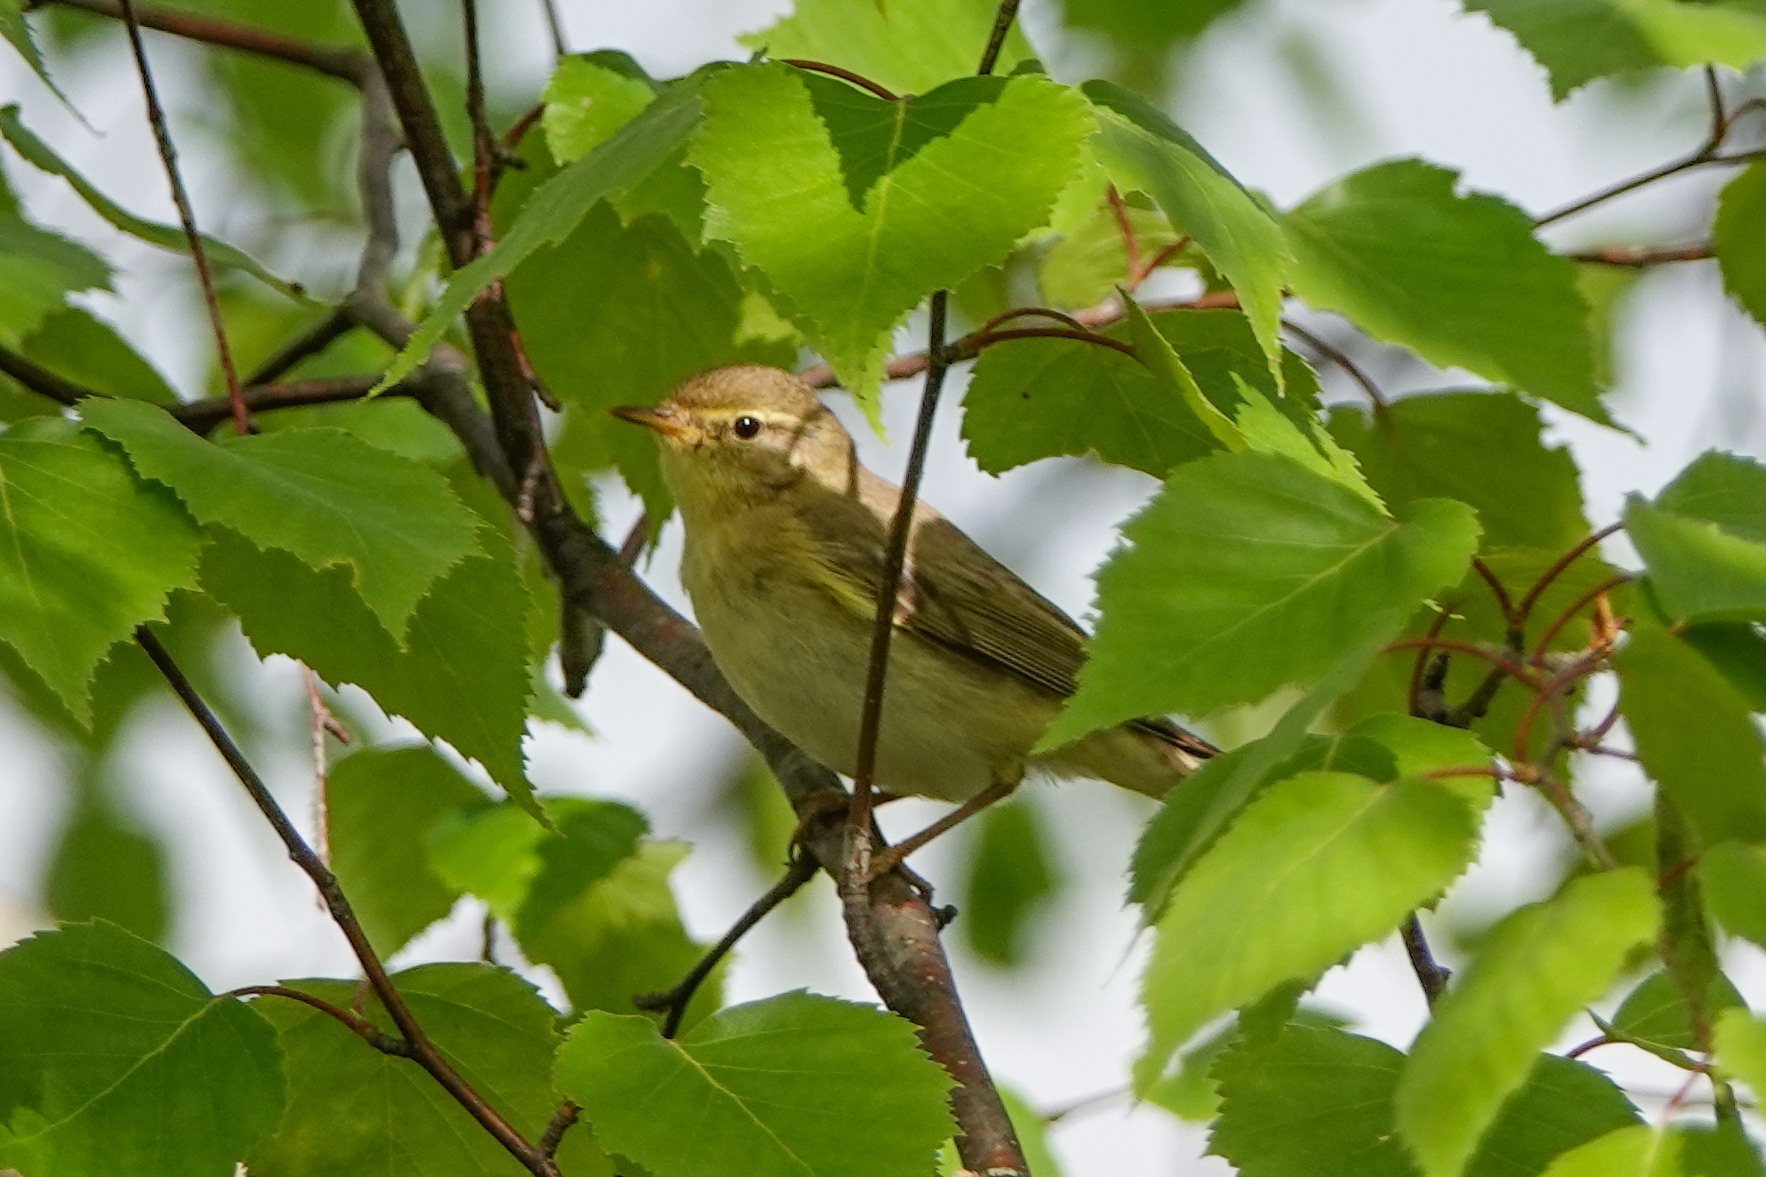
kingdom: Animalia
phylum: Chordata
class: Aves
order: Passeriformes
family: Phylloscopidae
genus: Phylloscopus
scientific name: Phylloscopus trochilus
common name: Willow warbler
